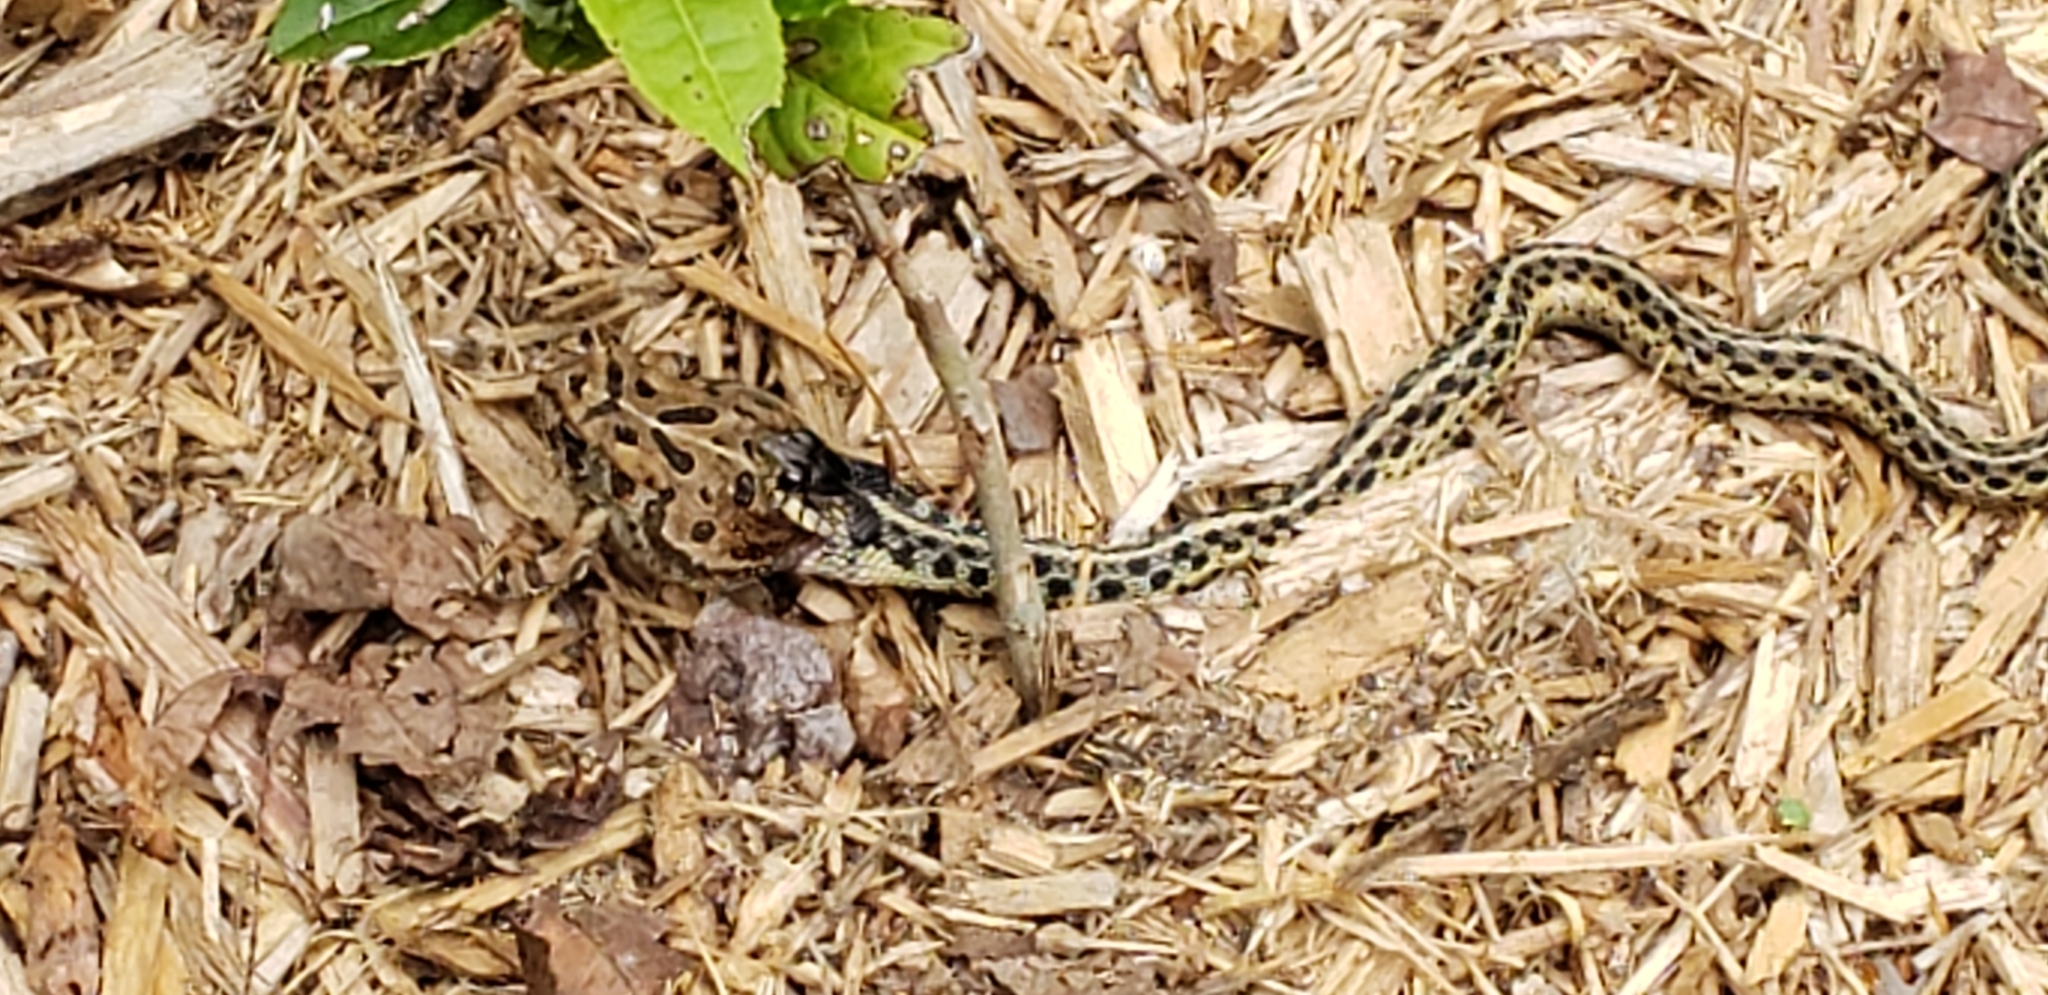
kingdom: Animalia
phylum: Chordata
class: Squamata
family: Colubridae
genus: Thamnophis
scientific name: Thamnophis sirtalis
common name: Common garter snake
